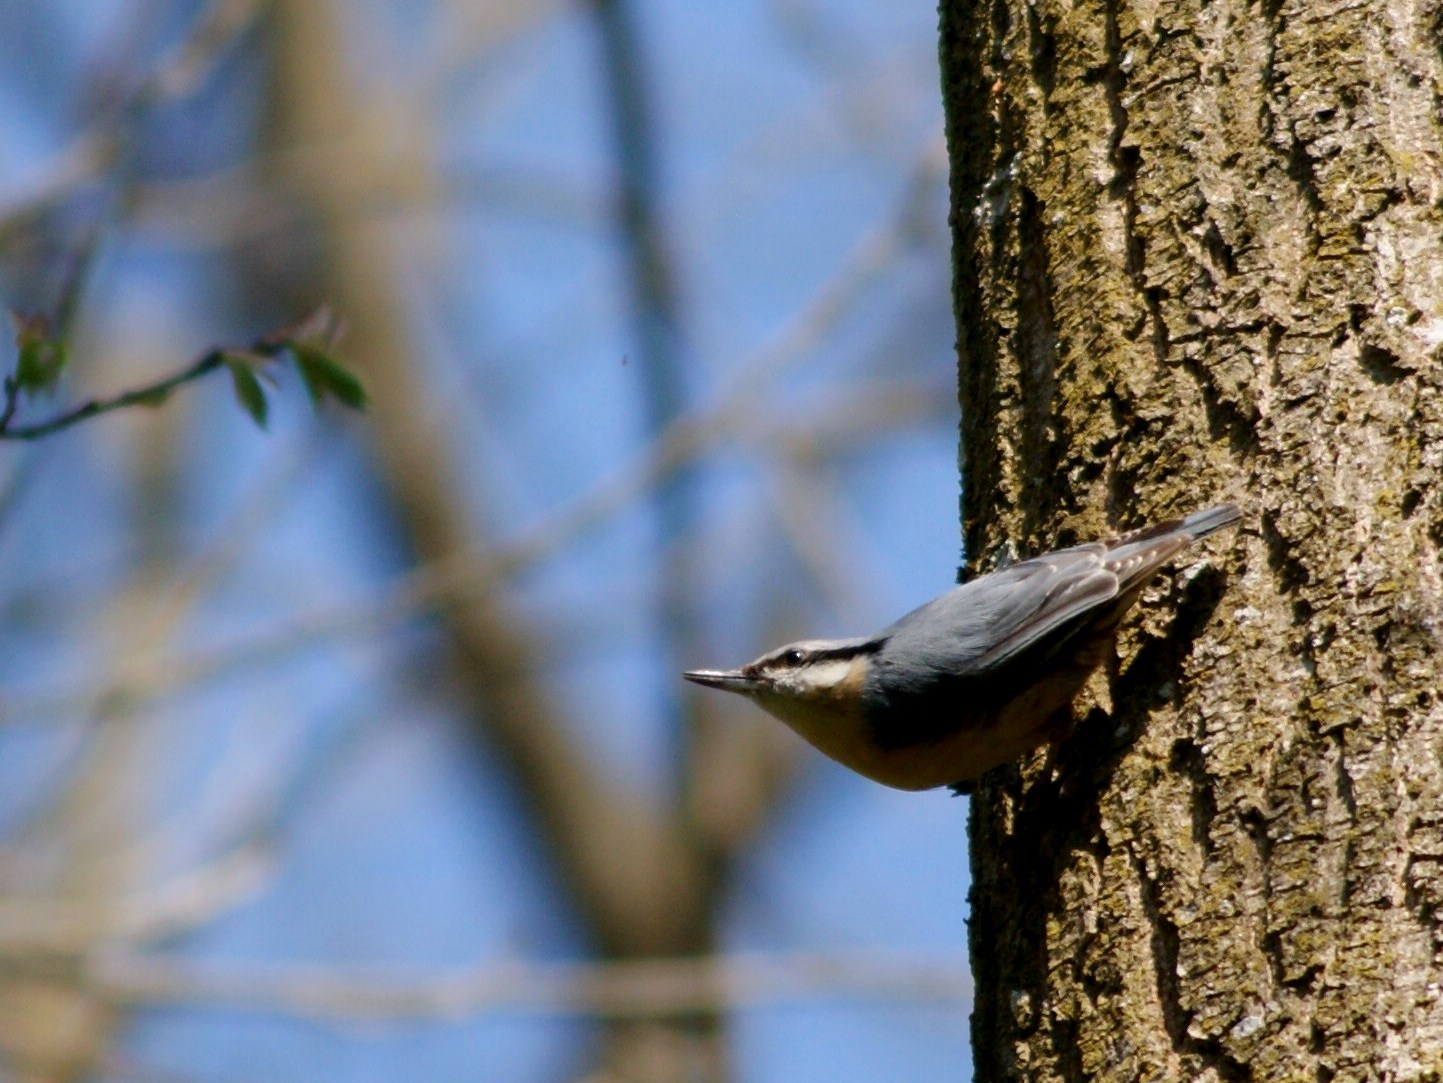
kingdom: Animalia
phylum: Chordata
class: Aves
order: Passeriformes
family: Sittidae
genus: Sitta
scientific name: Sitta europaea
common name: Eurasian nuthatch
